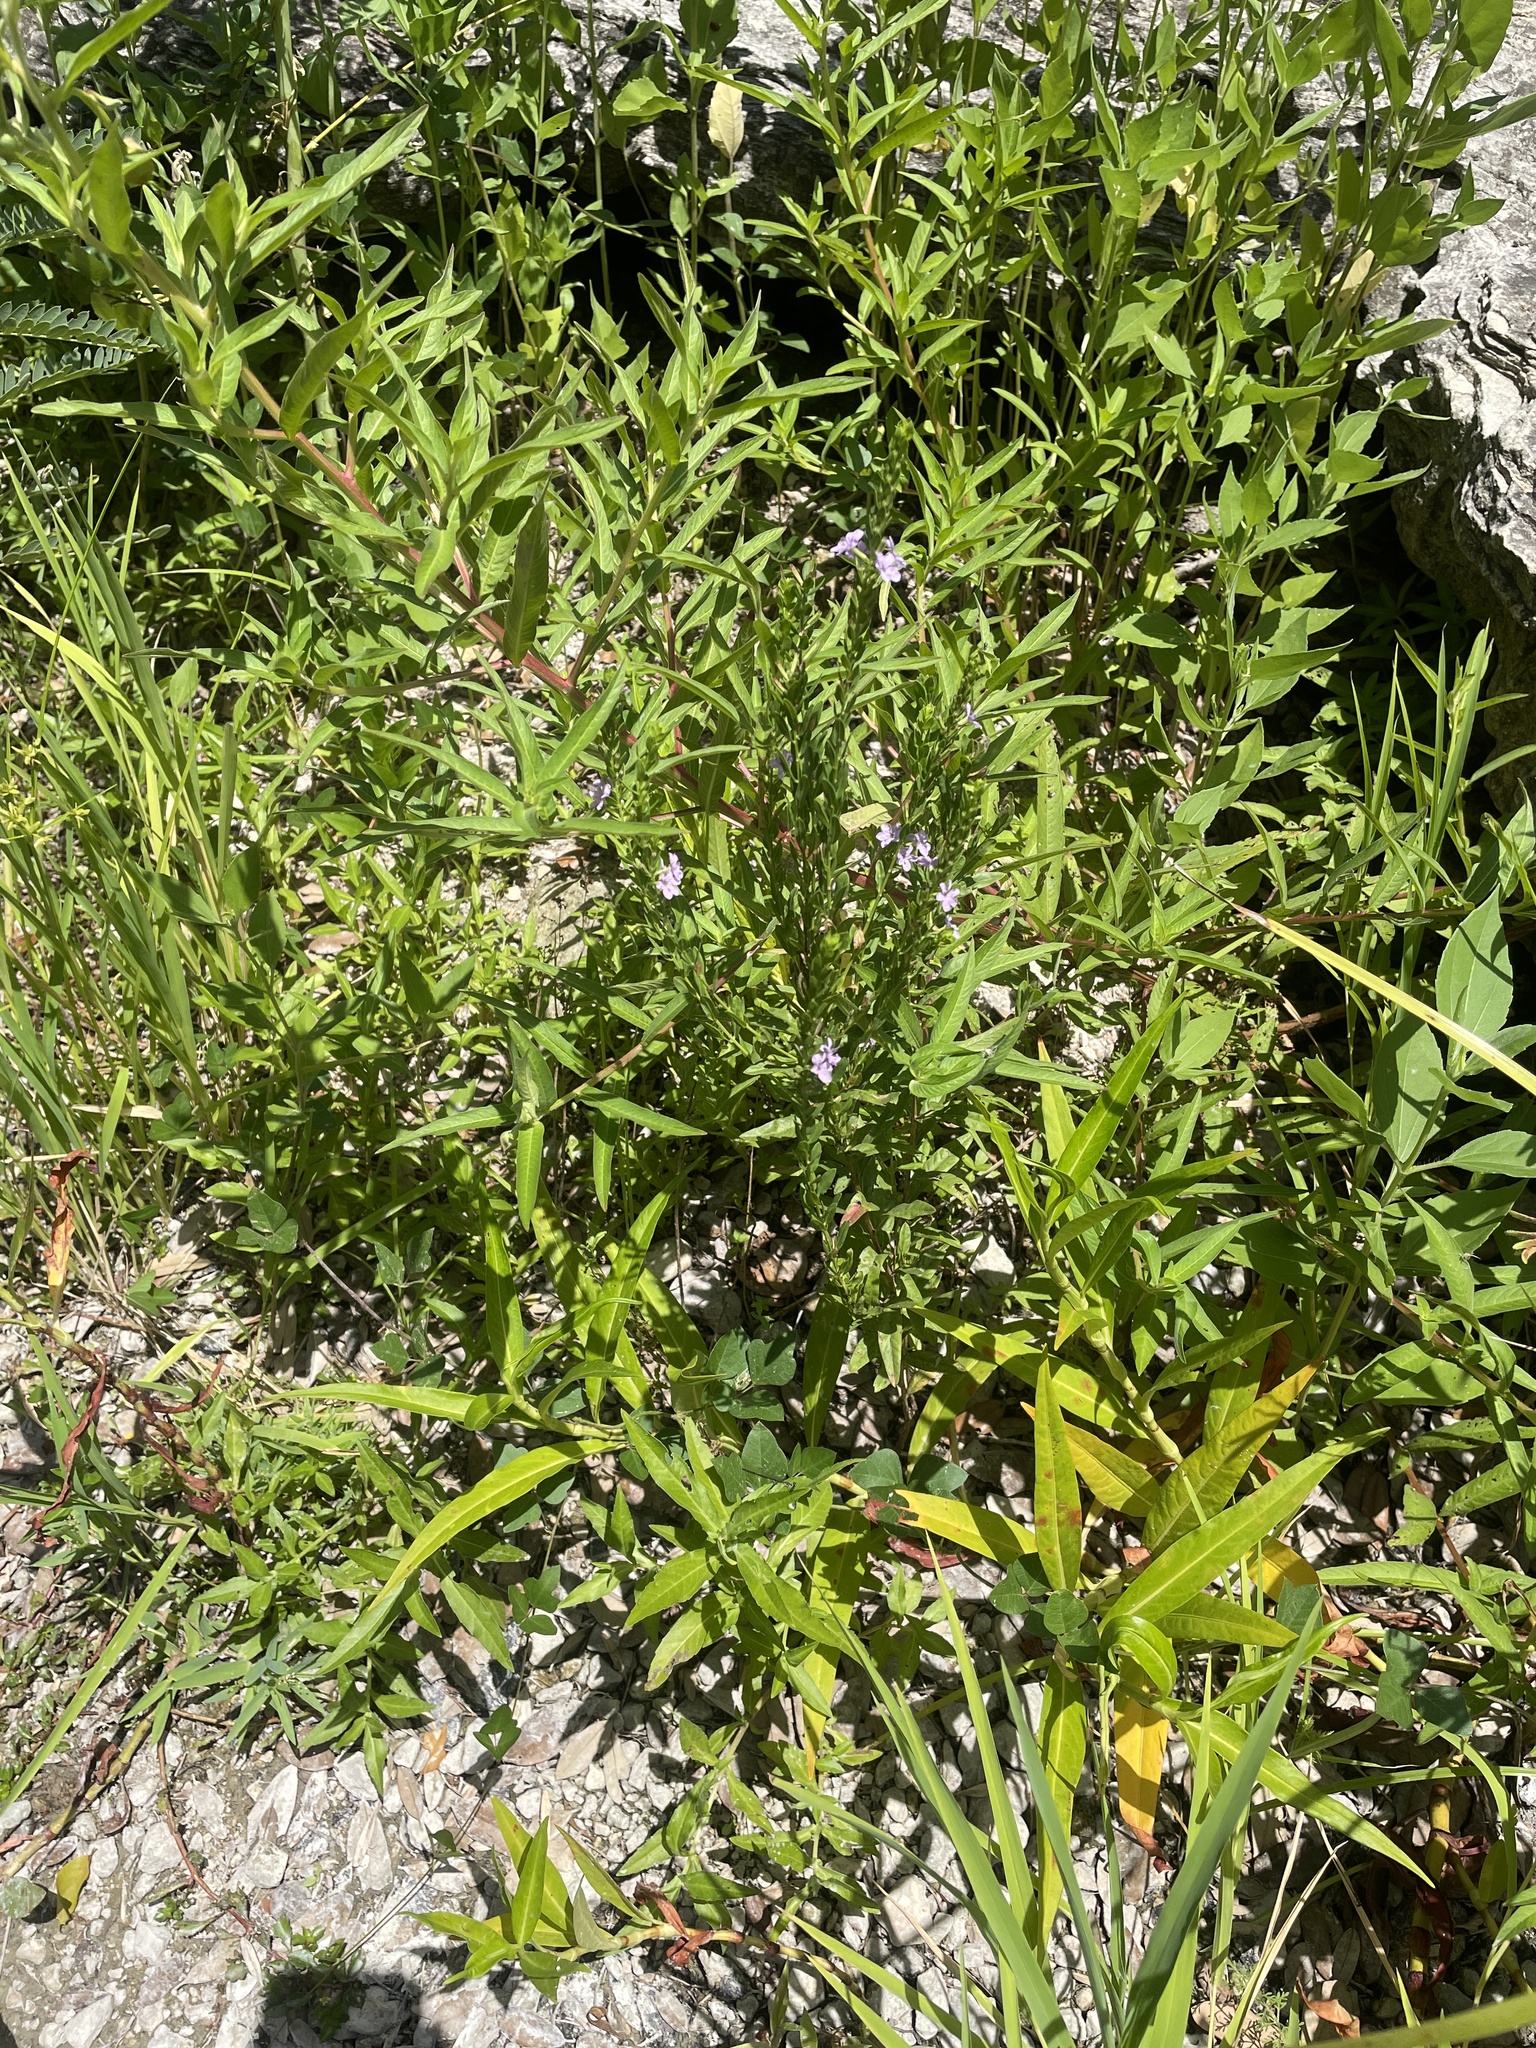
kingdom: Plantae
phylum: Tracheophyta
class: Magnoliopsida
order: Myrtales
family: Lythraceae
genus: Lythrum
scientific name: Lythrum alatum
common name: Winged loosestrife
